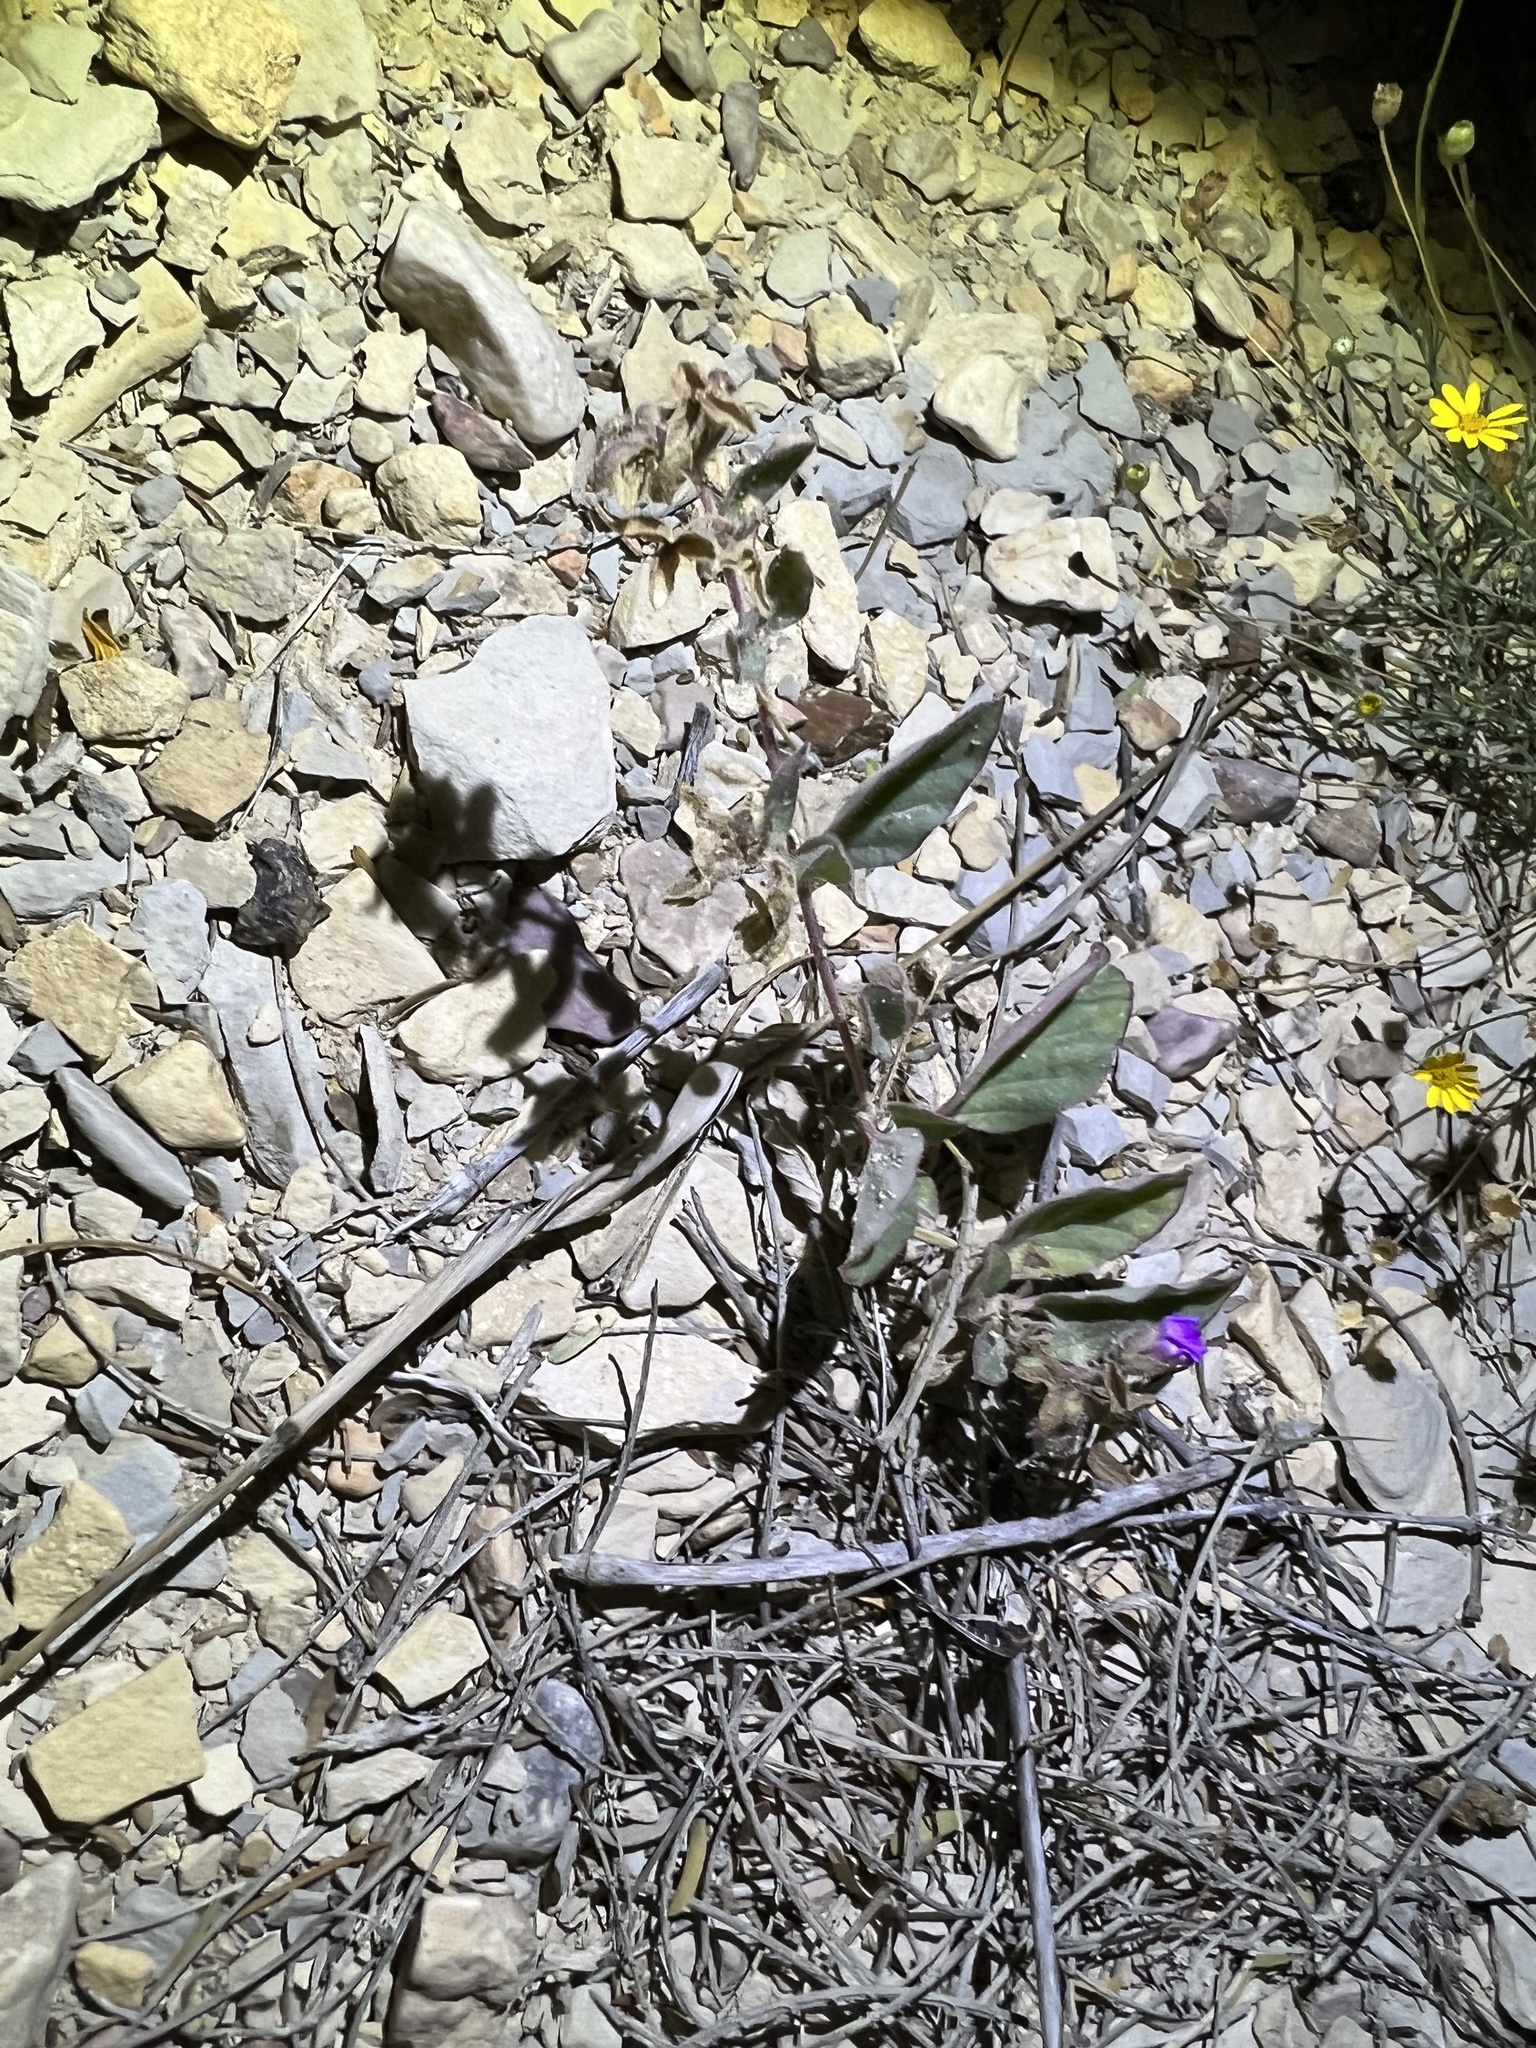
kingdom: Plantae
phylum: Tracheophyta
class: Magnoliopsida
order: Caryophyllales
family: Nyctaginaceae
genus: Allionia
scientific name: Allionia incarnata
